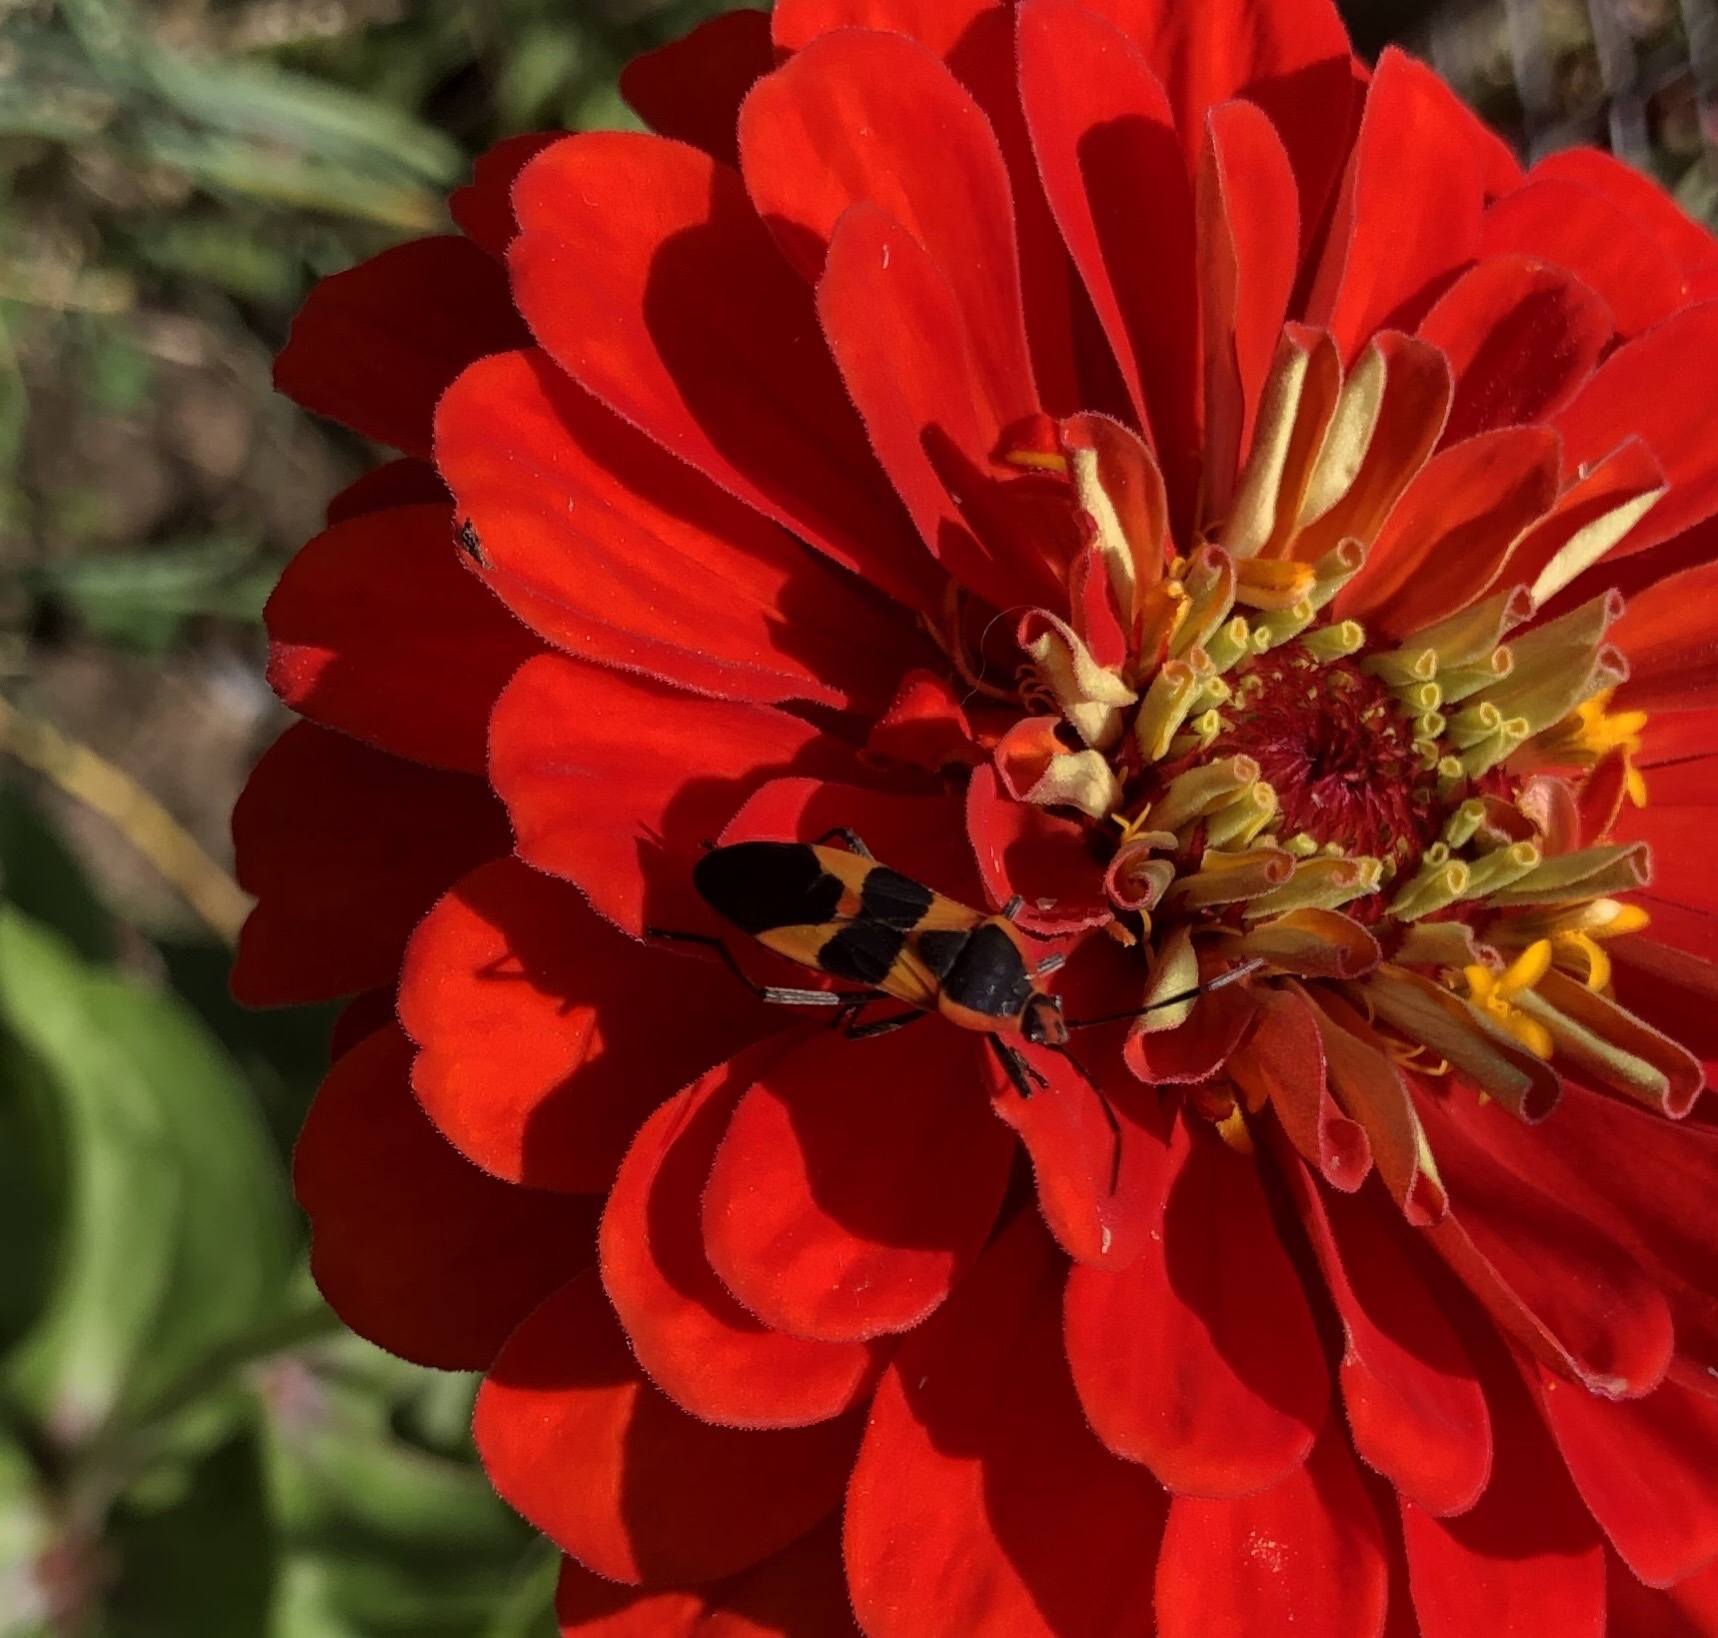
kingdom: Animalia
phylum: Arthropoda
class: Insecta
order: Hemiptera
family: Lygaeidae
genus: Oncopeltus
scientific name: Oncopeltus fasciatus
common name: Large milkweed bug
